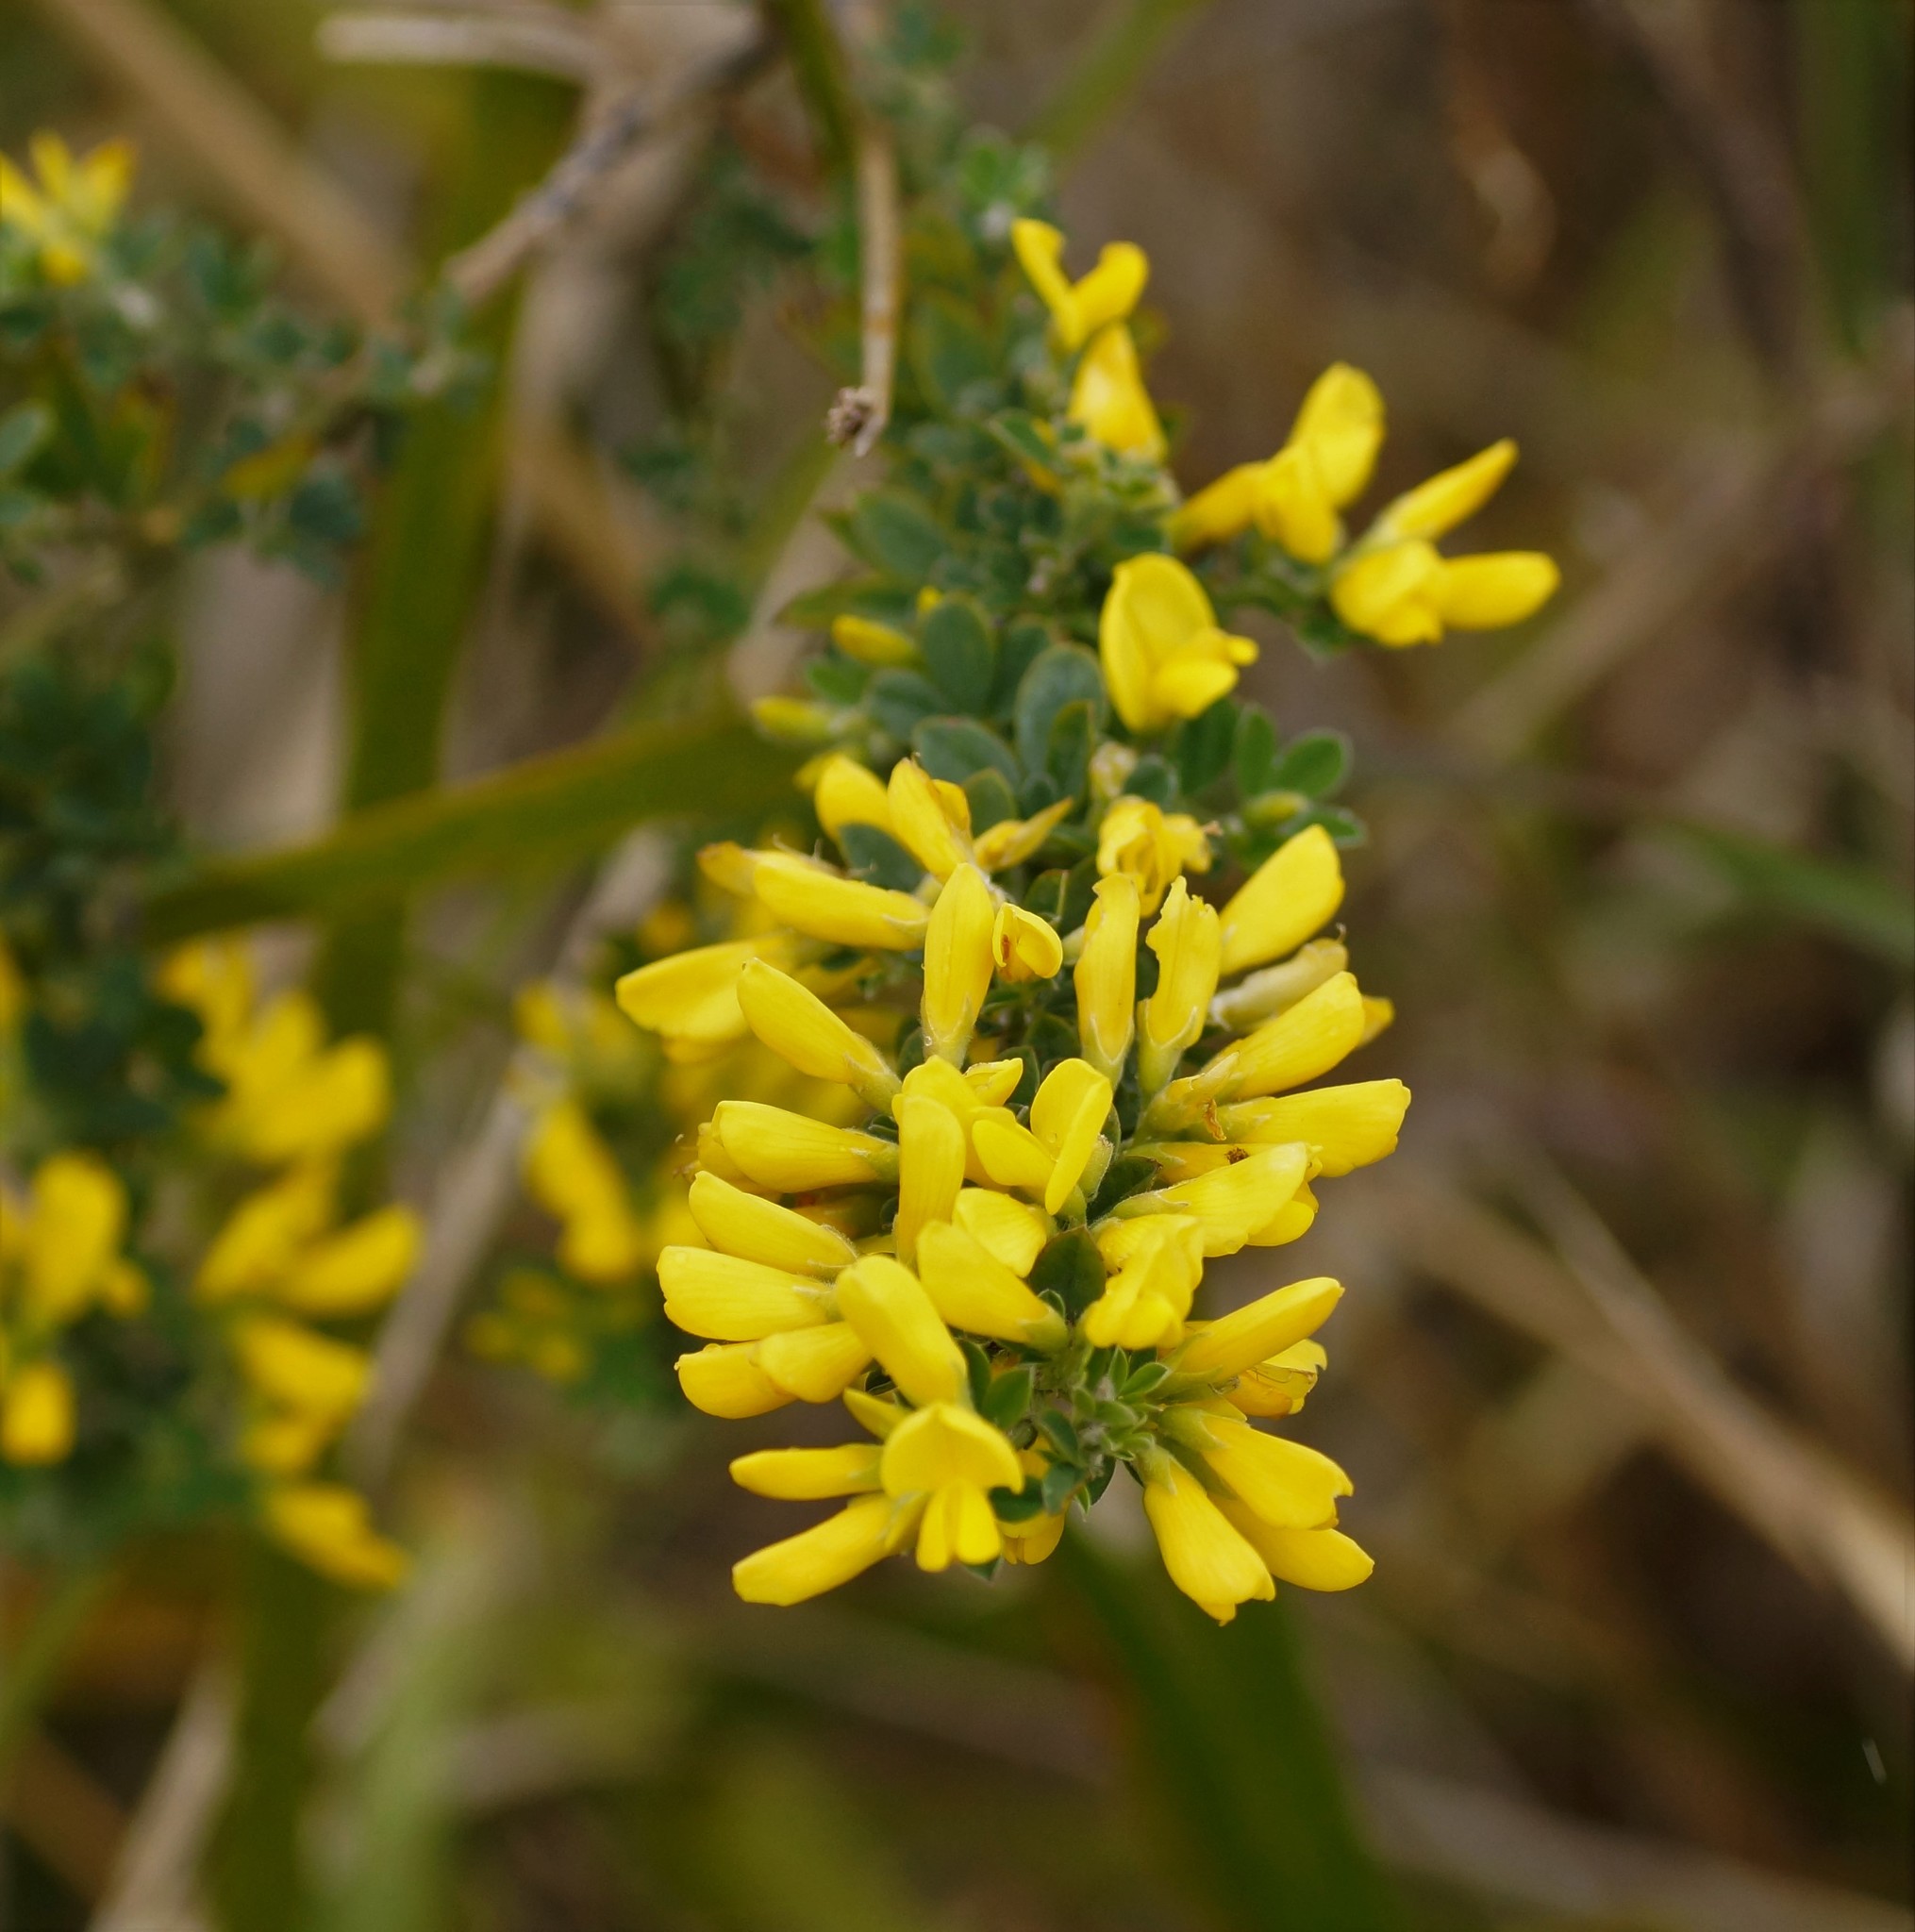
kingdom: Plantae
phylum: Tracheophyta
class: Magnoliopsida
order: Fabales
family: Fabaceae
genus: Genista
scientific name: Genista monspessulana
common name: Montpellier broom
